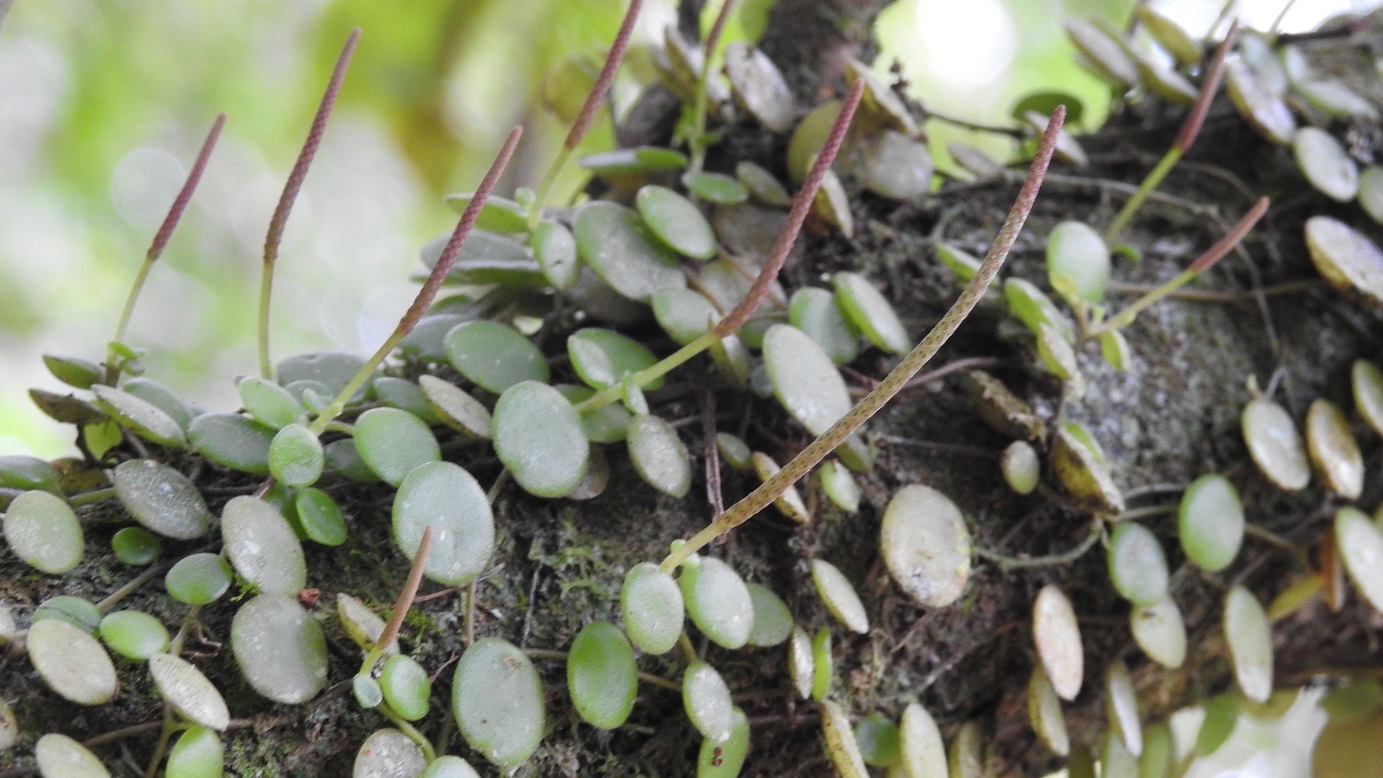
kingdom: Plantae
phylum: Tracheophyta
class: Magnoliopsida
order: Piperales
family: Piperaceae
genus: Peperomia
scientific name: Peperomia rotundifolia
